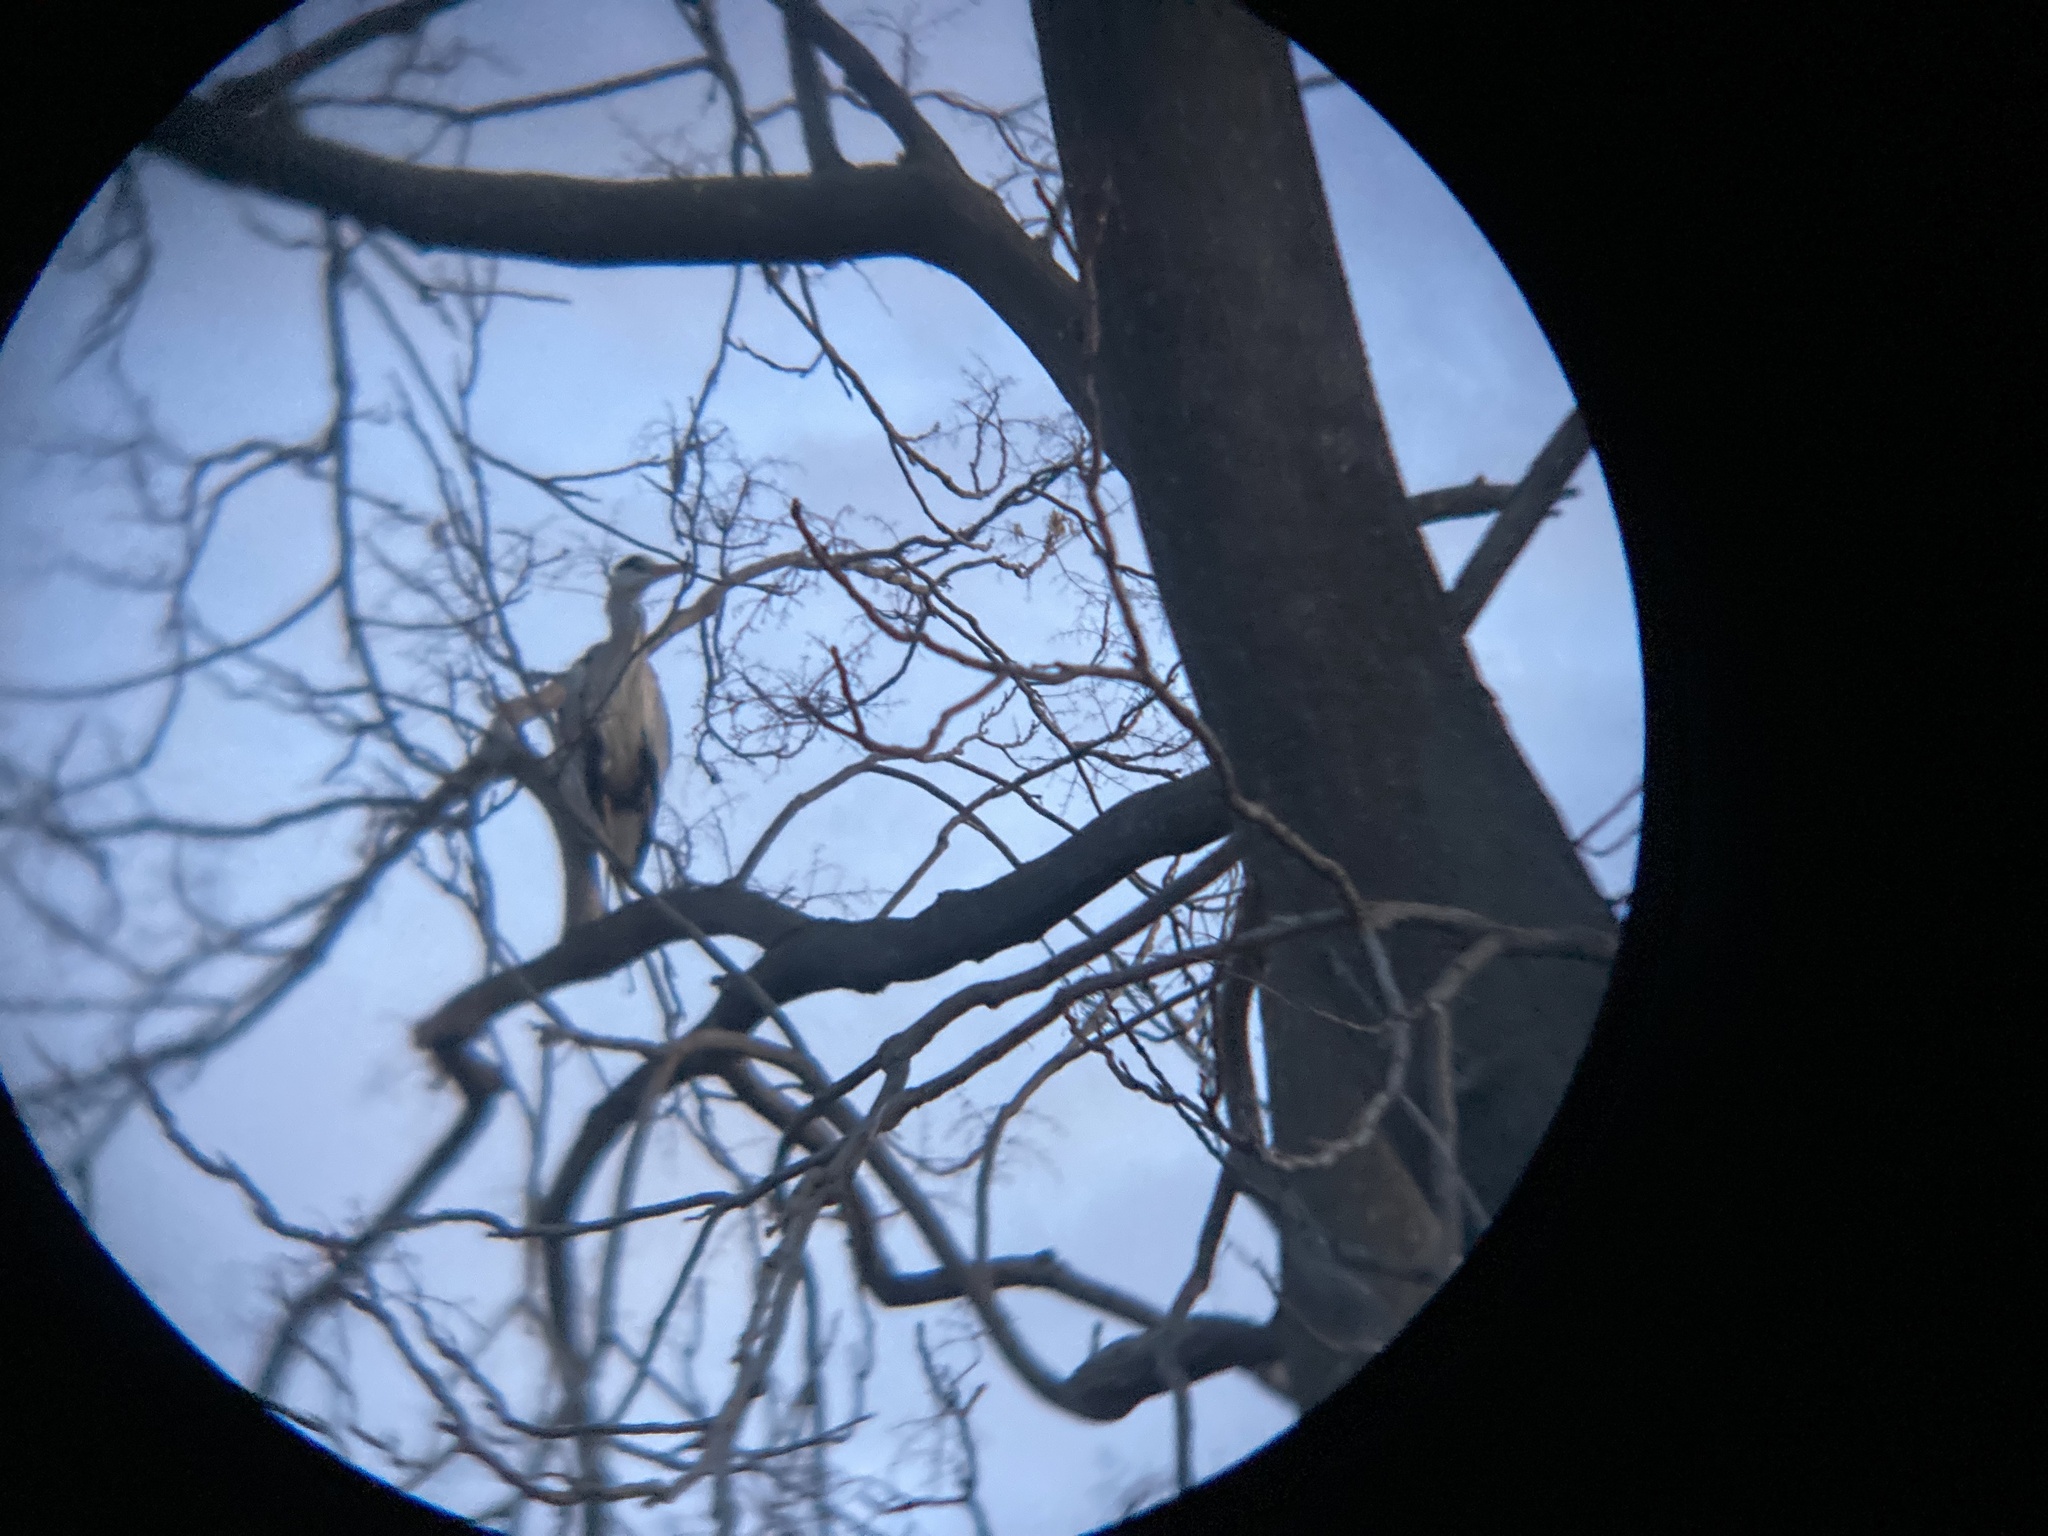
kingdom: Animalia
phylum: Chordata
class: Aves
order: Pelecaniformes
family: Ardeidae
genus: Ardea
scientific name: Ardea cinerea
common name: Grey heron
